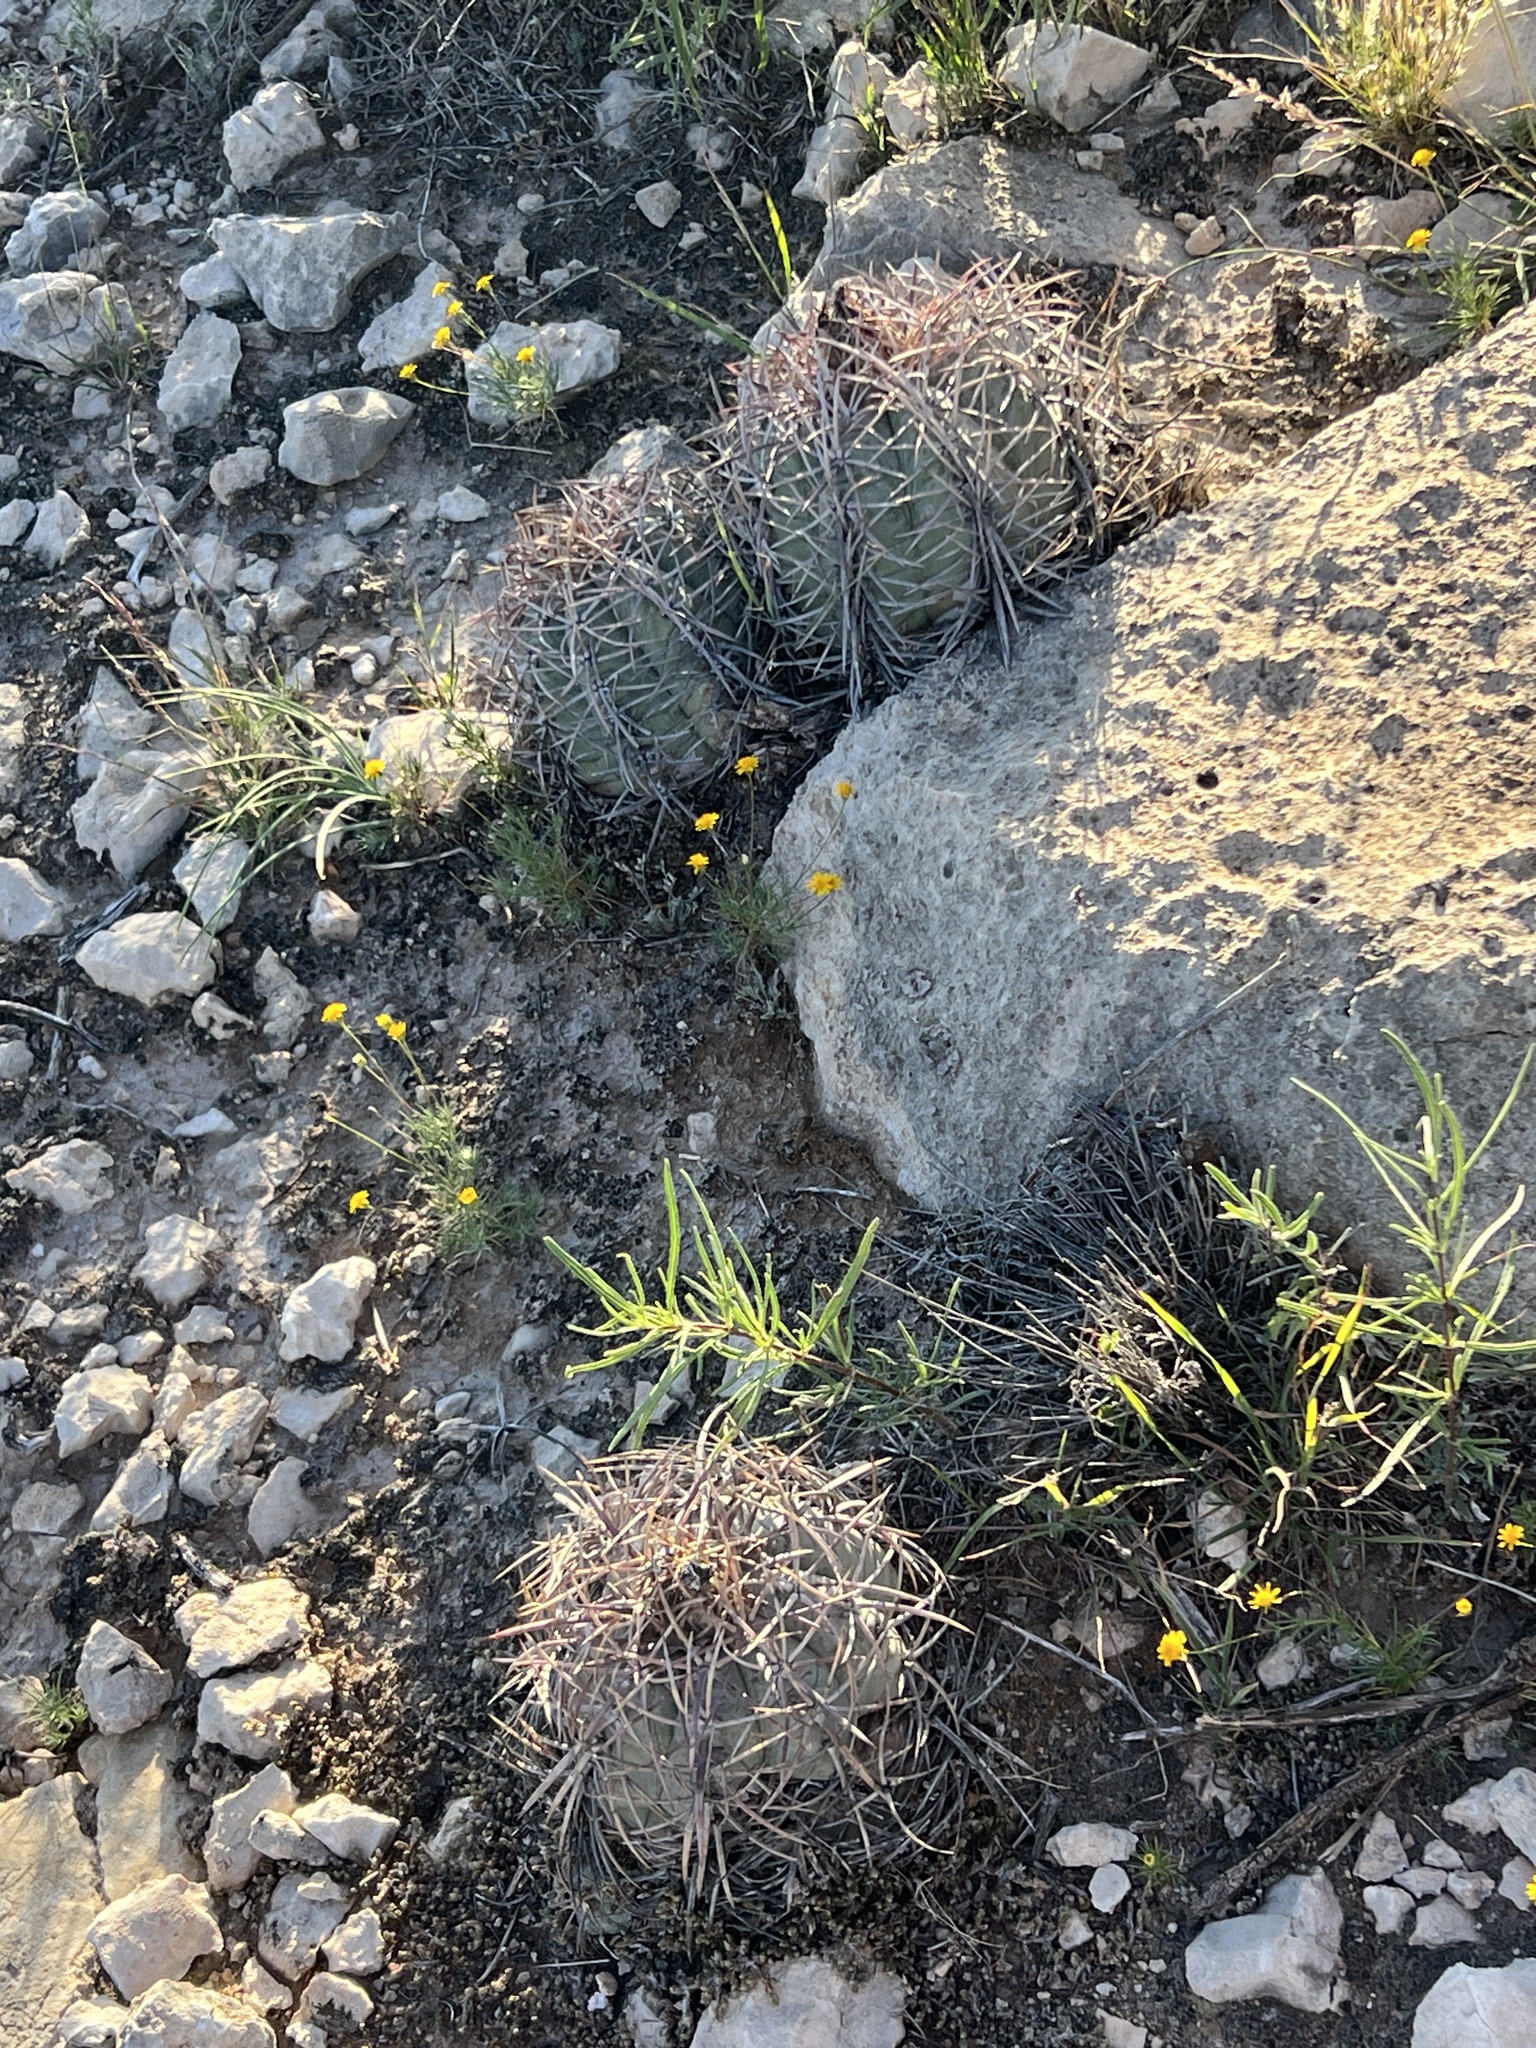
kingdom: Plantae
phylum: Tracheophyta
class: Magnoliopsida
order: Caryophyllales
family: Cactaceae
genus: Echinocactus
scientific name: Echinocactus horizonthalonius
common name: Devilshead
